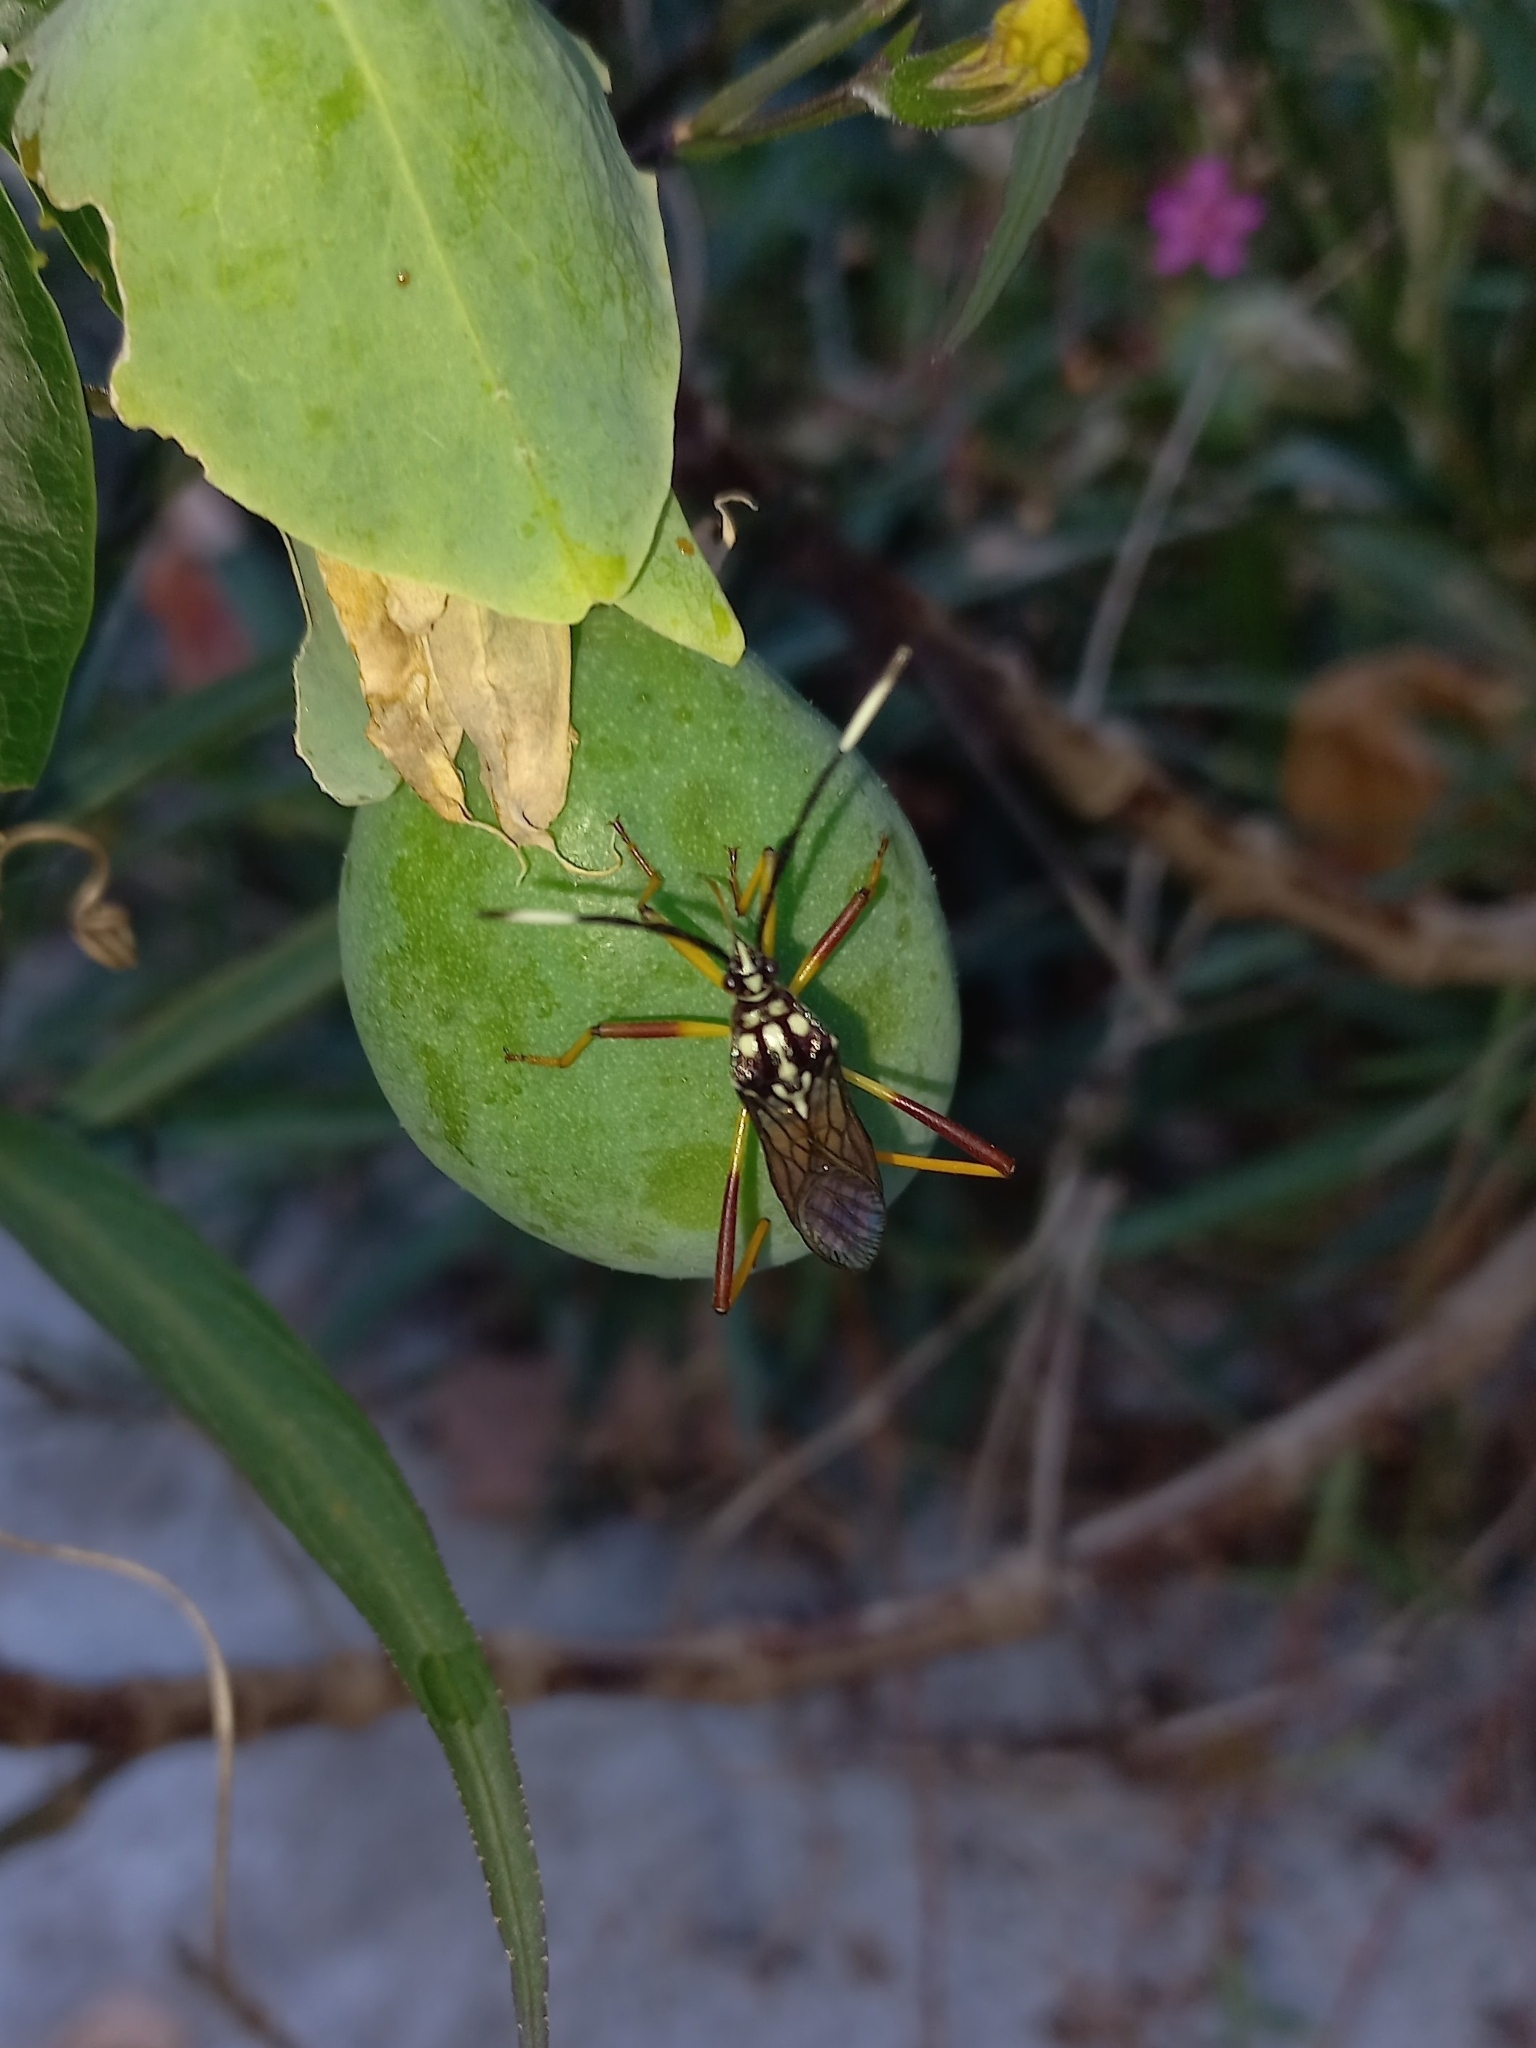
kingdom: Animalia
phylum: Arthropoda
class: Insecta
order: Hemiptera
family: Coreidae
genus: Holhymenia
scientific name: Holhymenia histrio
